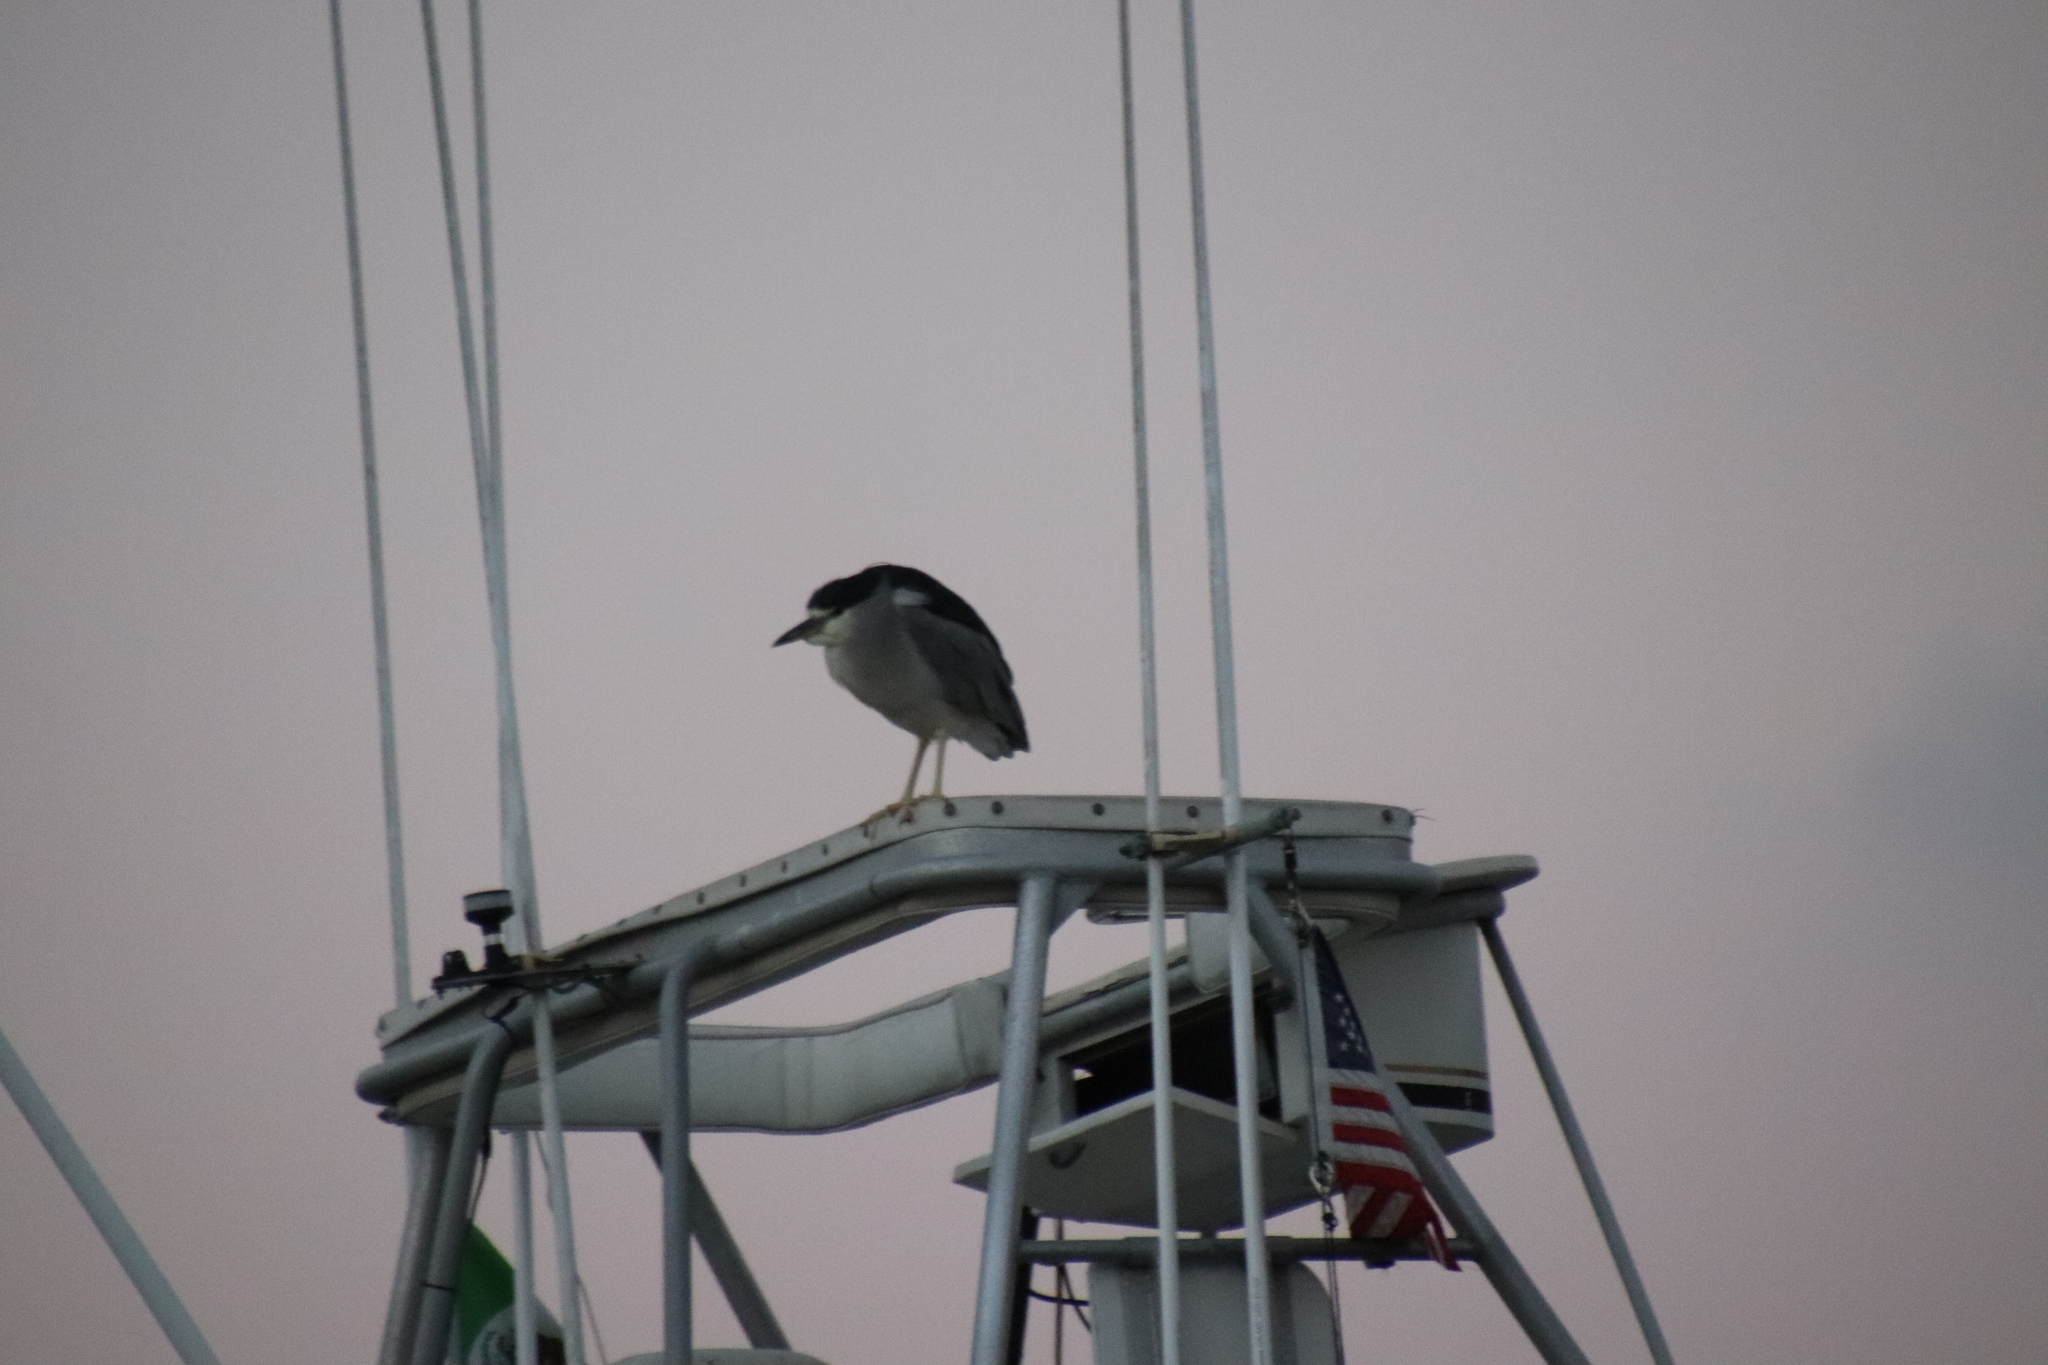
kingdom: Animalia
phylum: Chordata
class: Aves
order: Pelecaniformes
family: Ardeidae
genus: Nycticorax
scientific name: Nycticorax nycticorax
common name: Black-crowned night heron
